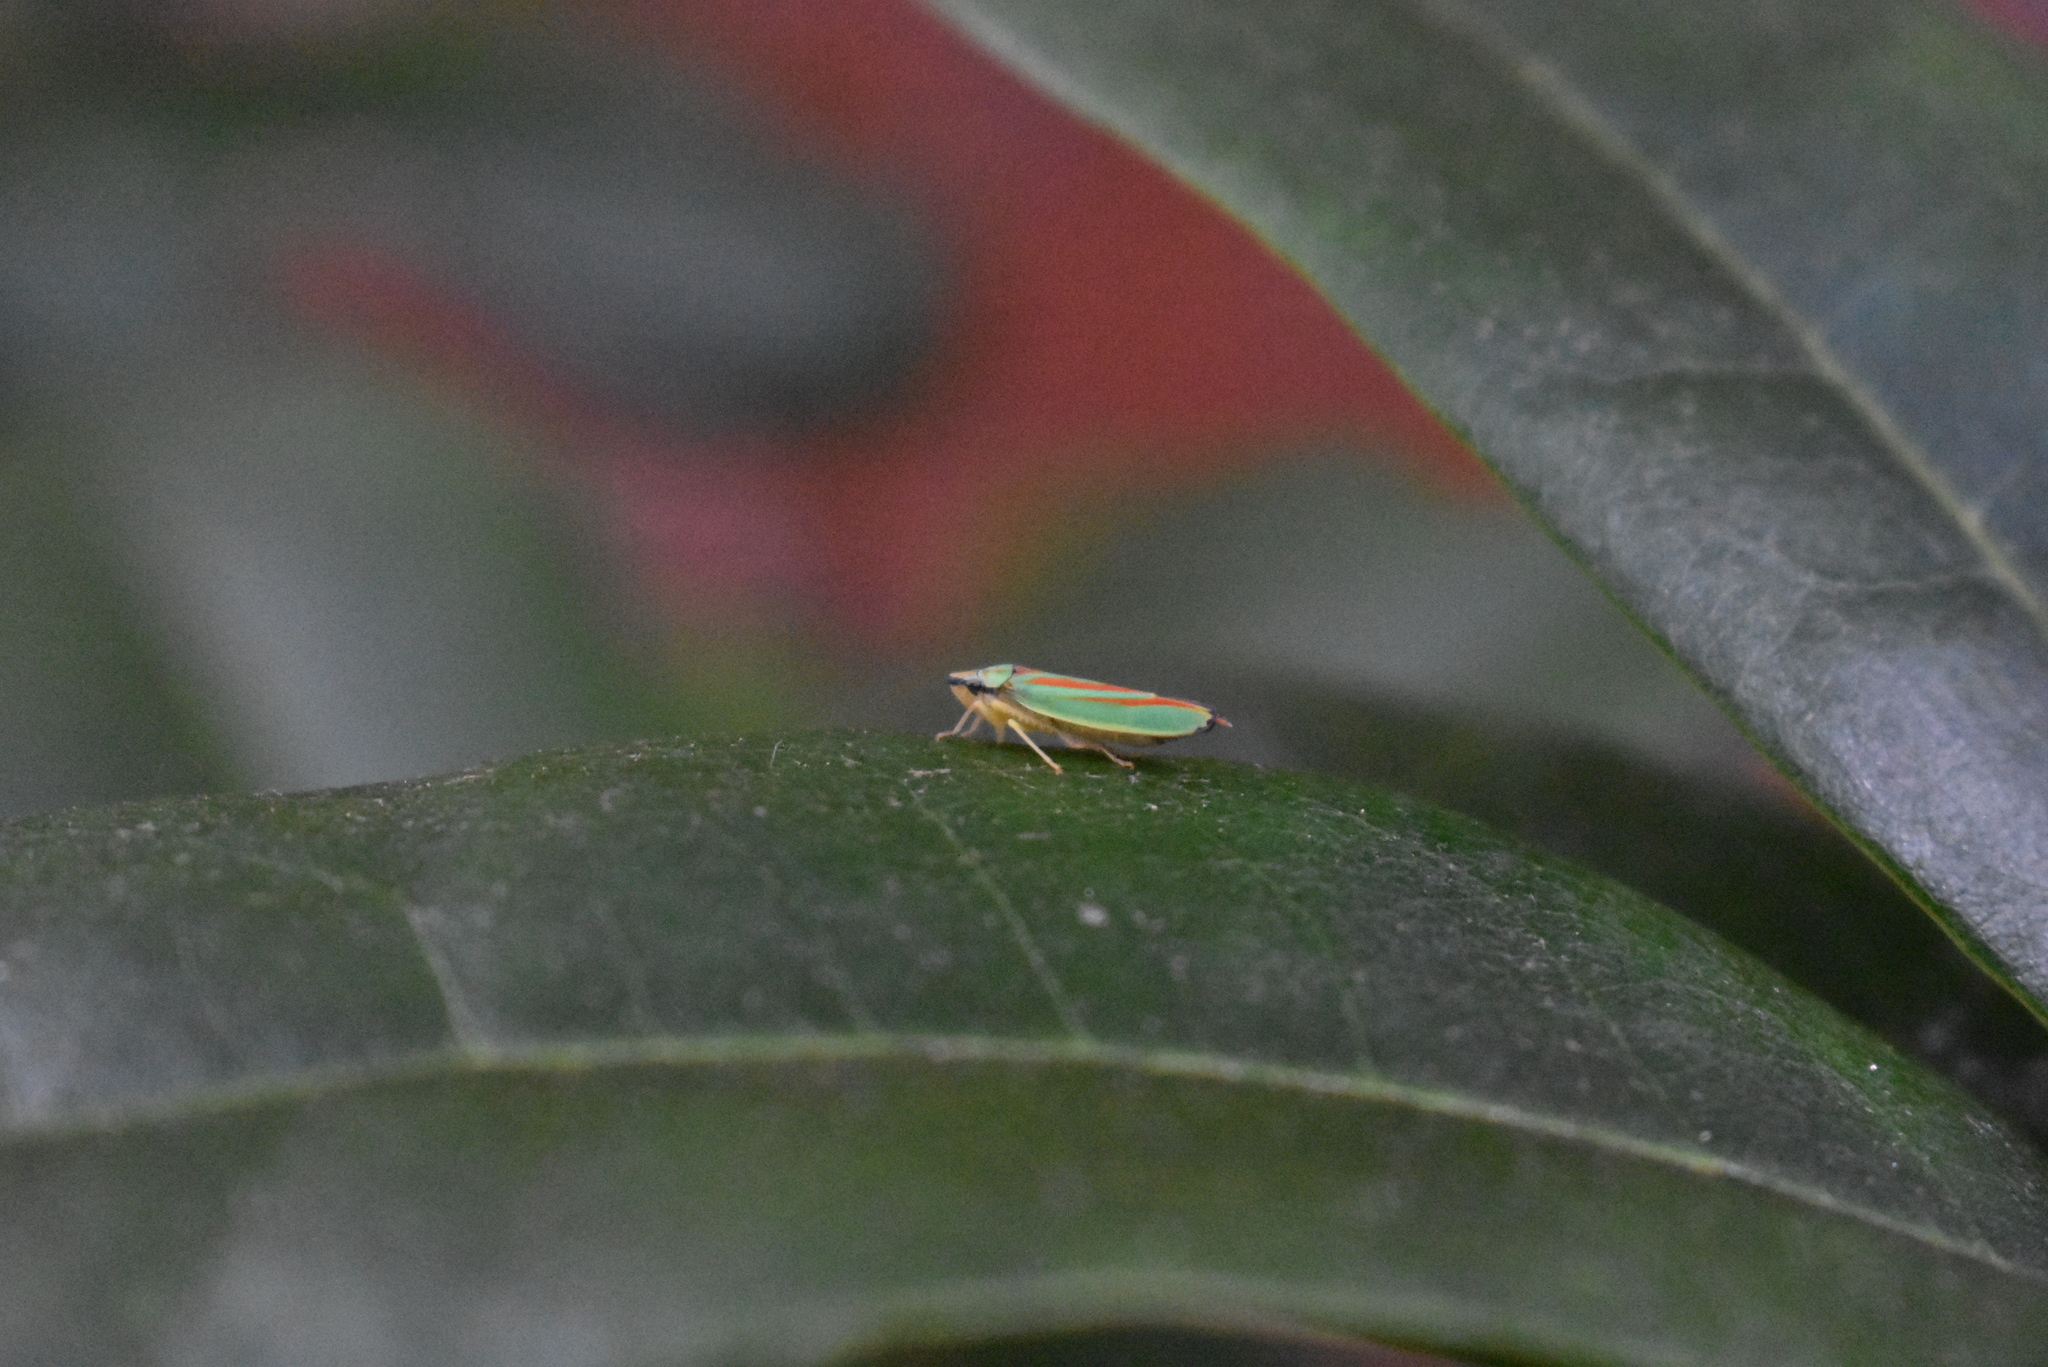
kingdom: Animalia
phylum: Arthropoda
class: Insecta
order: Hemiptera
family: Cicadellidae
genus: Graphocephala
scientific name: Graphocephala fennahi
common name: Rhododendron leafhopper
